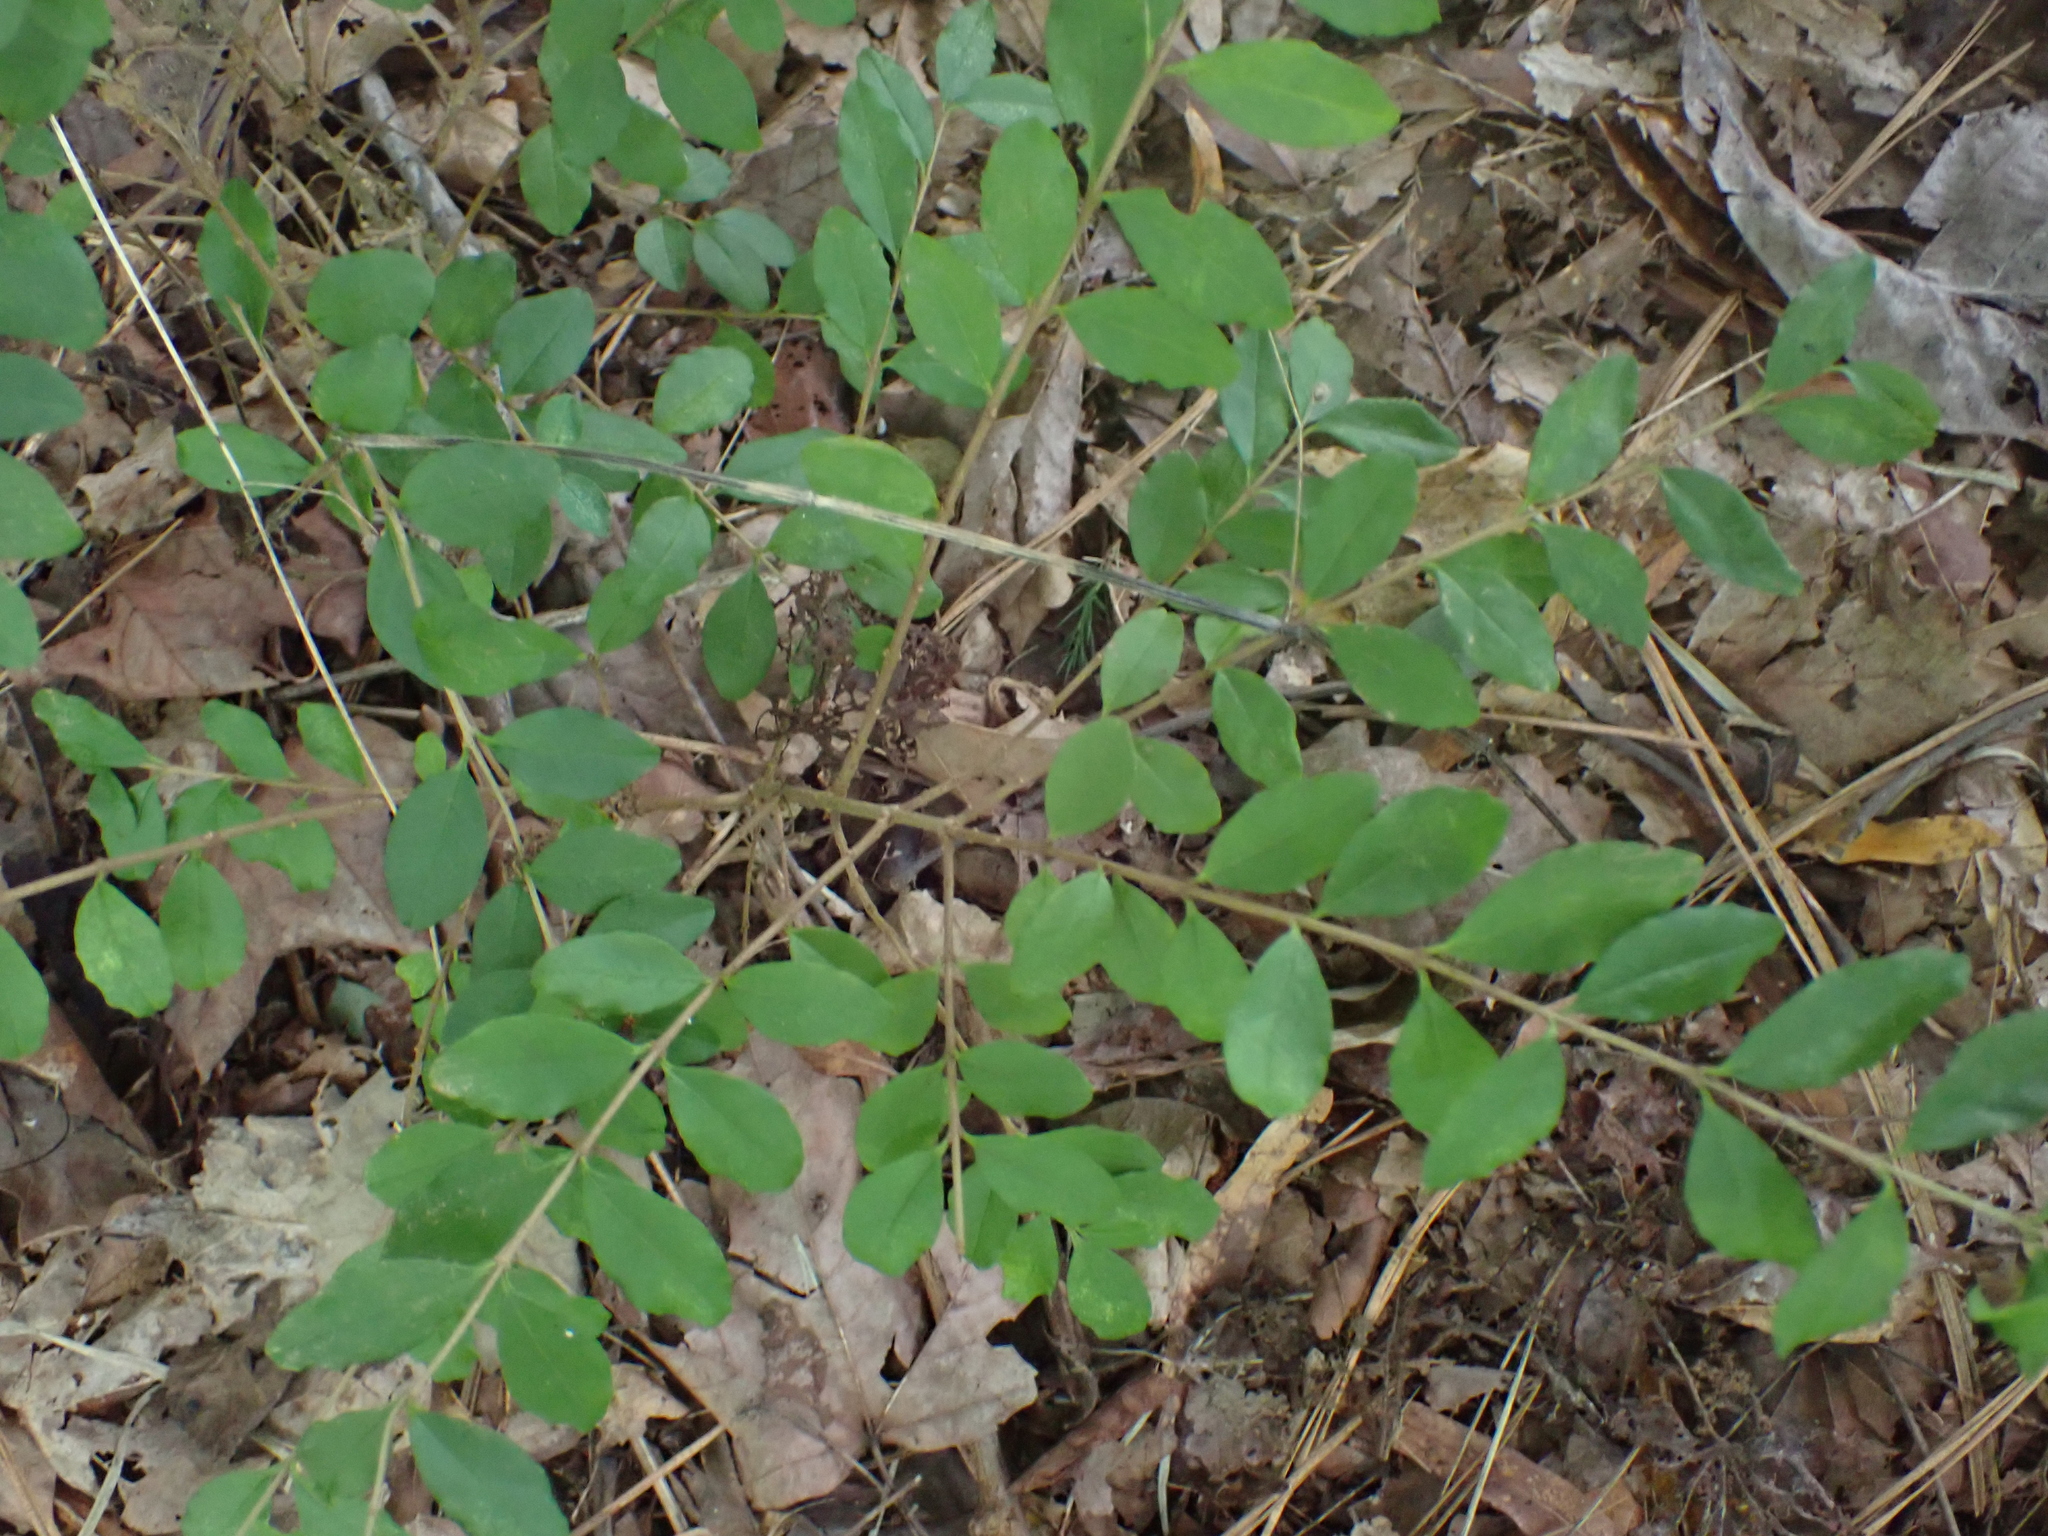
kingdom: Plantae
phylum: Tracheophyta
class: Magnoliopsida
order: Lamiales
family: Oleaceae
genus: Ligustrum
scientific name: Ligustrum sinense
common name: Chinese privet
